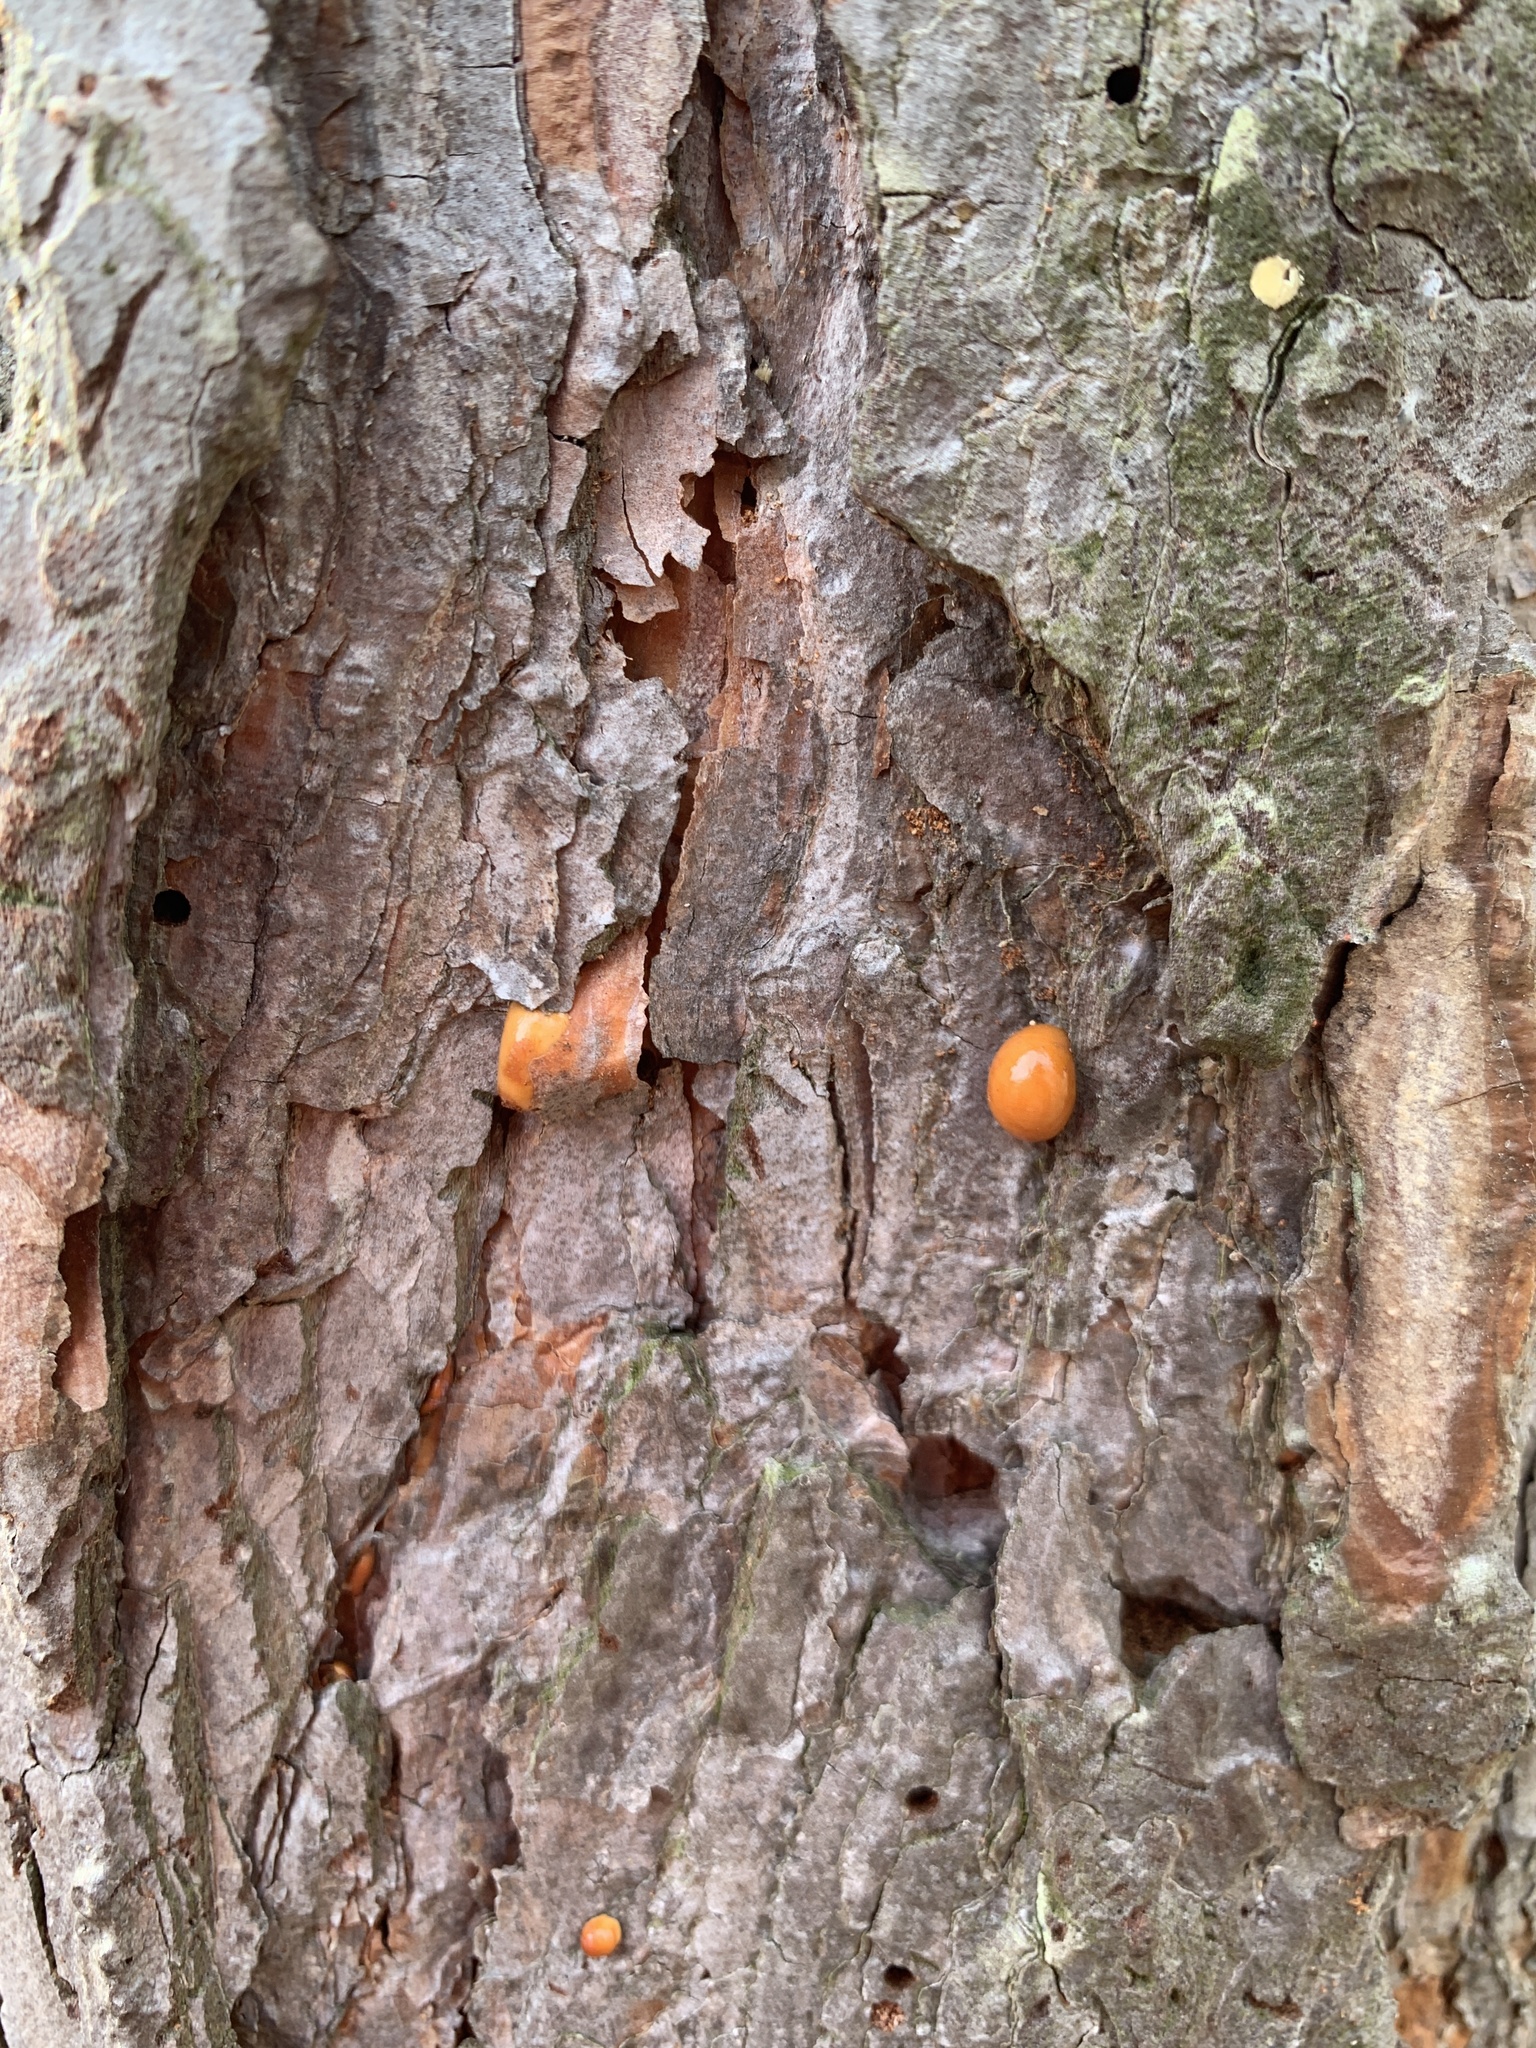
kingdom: Fungi
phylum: Basidiomycota
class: Agaricomycetes
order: Polyporales
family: Polyporaceae
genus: Cryptoporus
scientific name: Cryptoporus volvatus
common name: Veiled polypore
